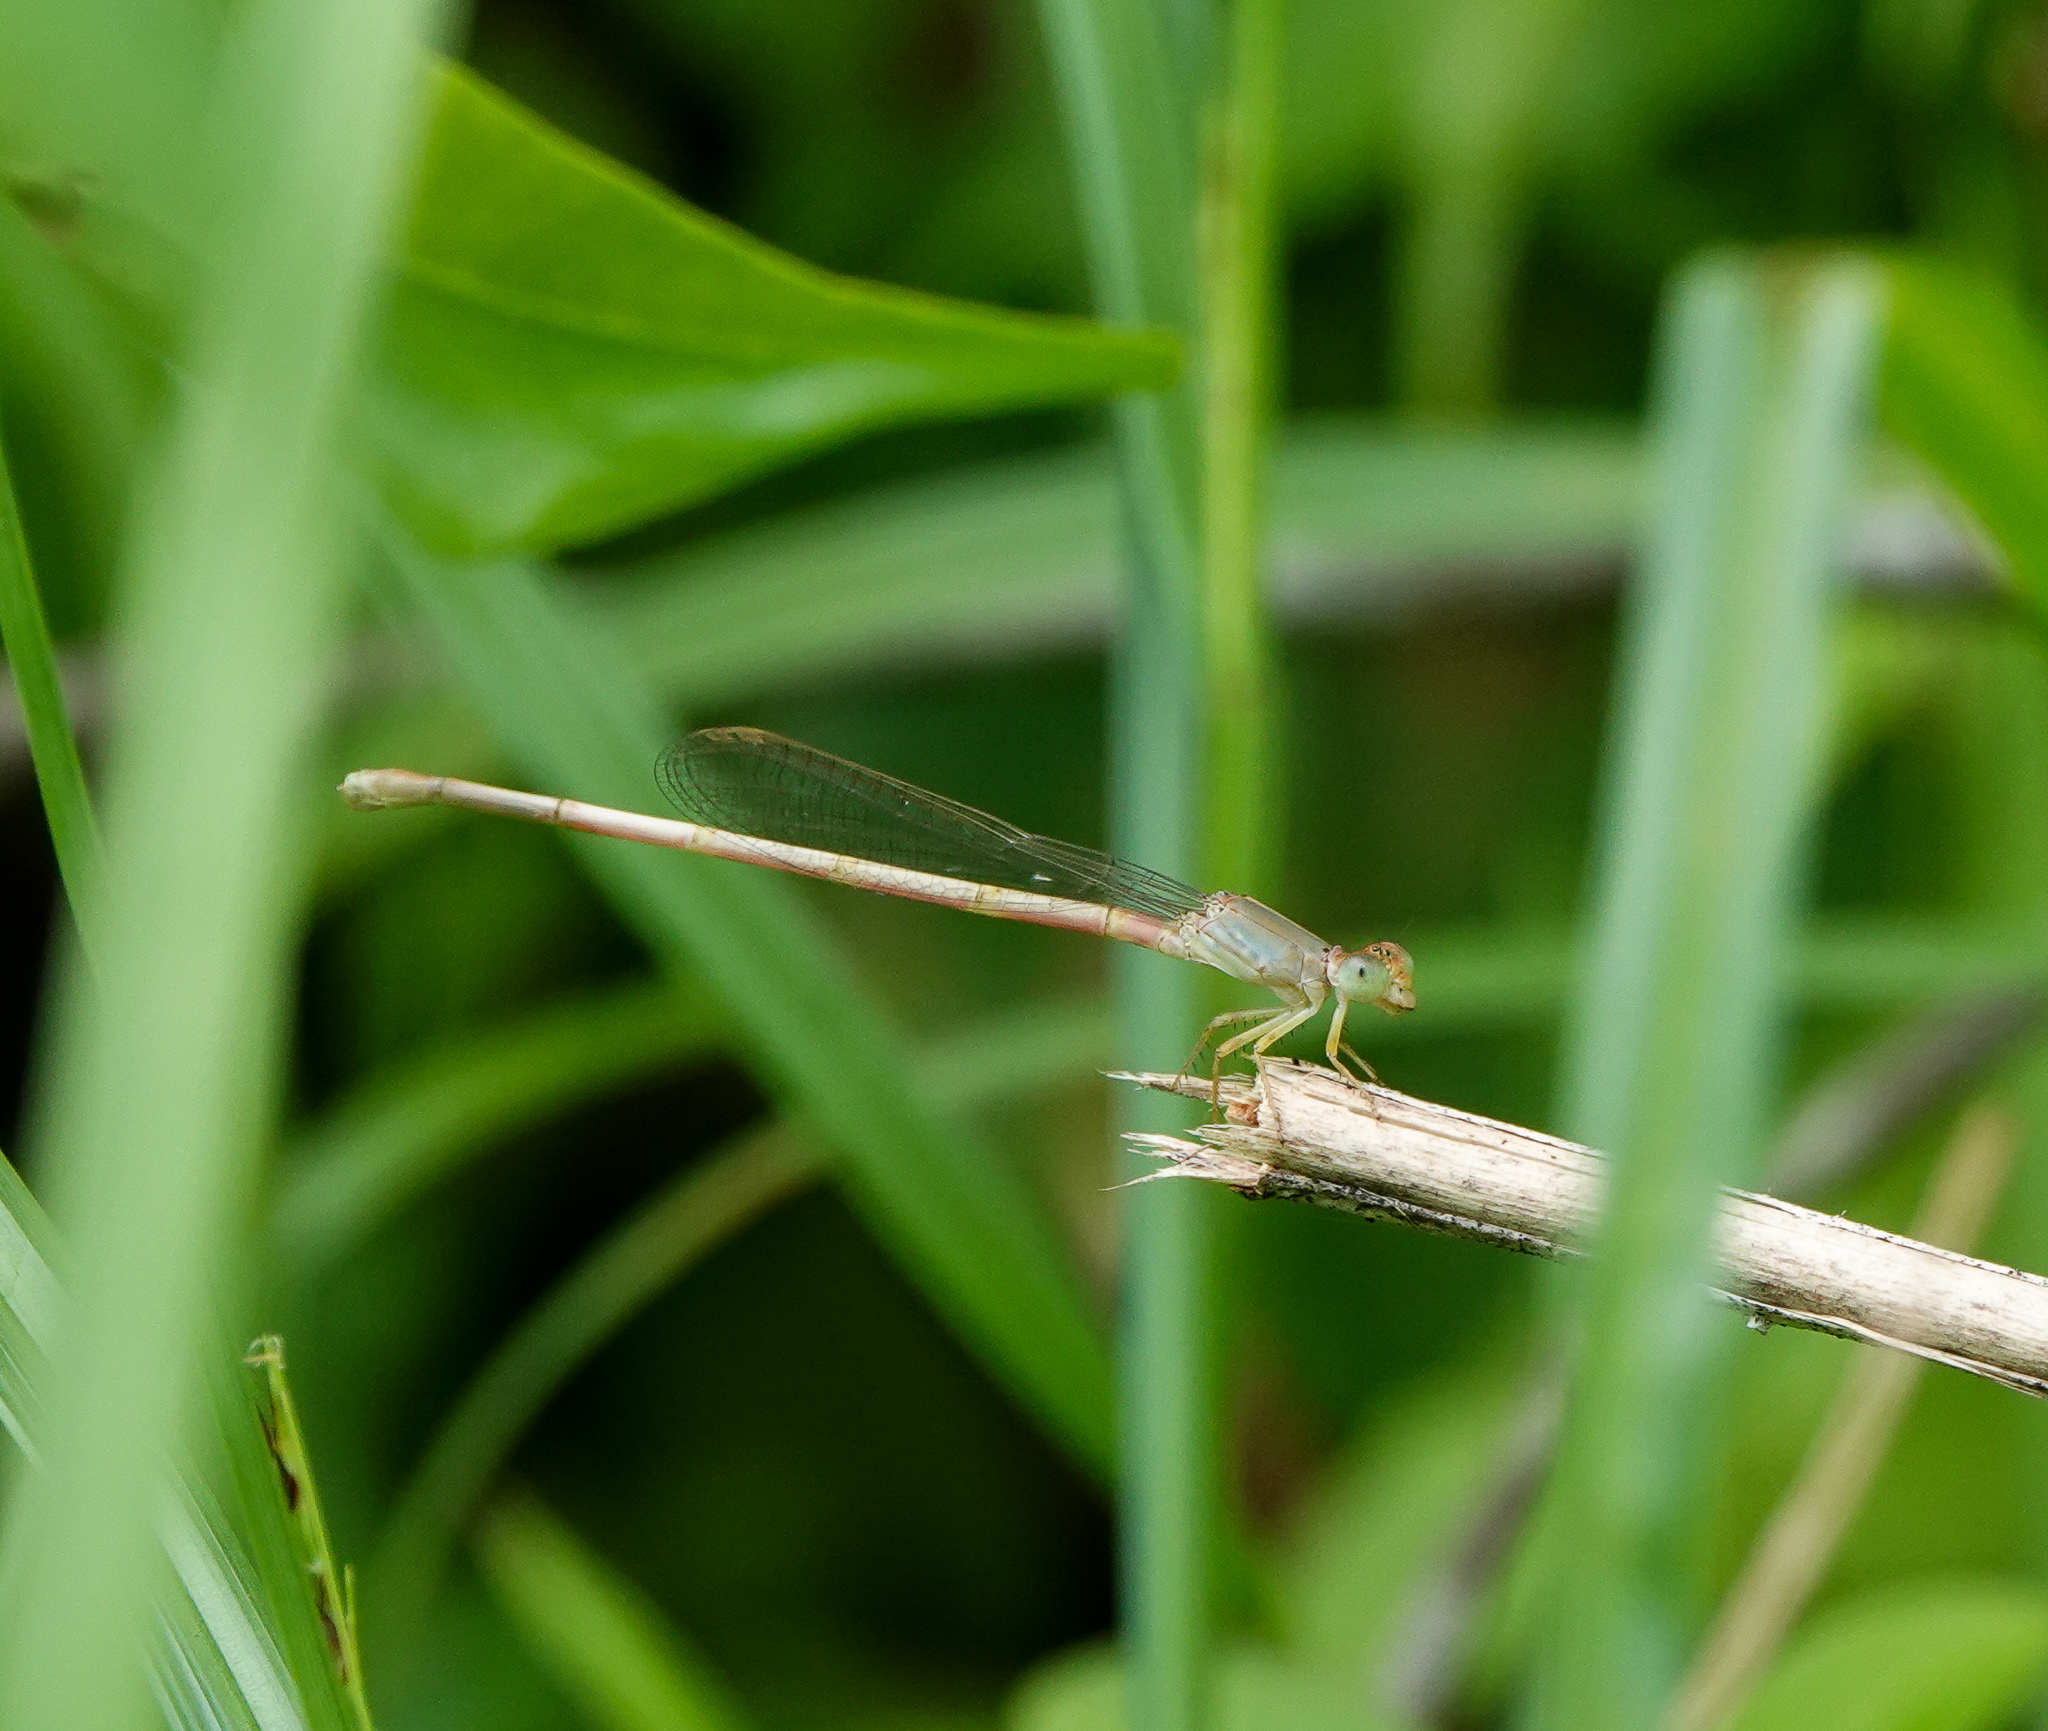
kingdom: Animalia
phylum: Arthropoda
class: Insecta
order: Odonata
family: Coenagrionidae
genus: Ceriagrion
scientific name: Ceriagrion coromandelianum
